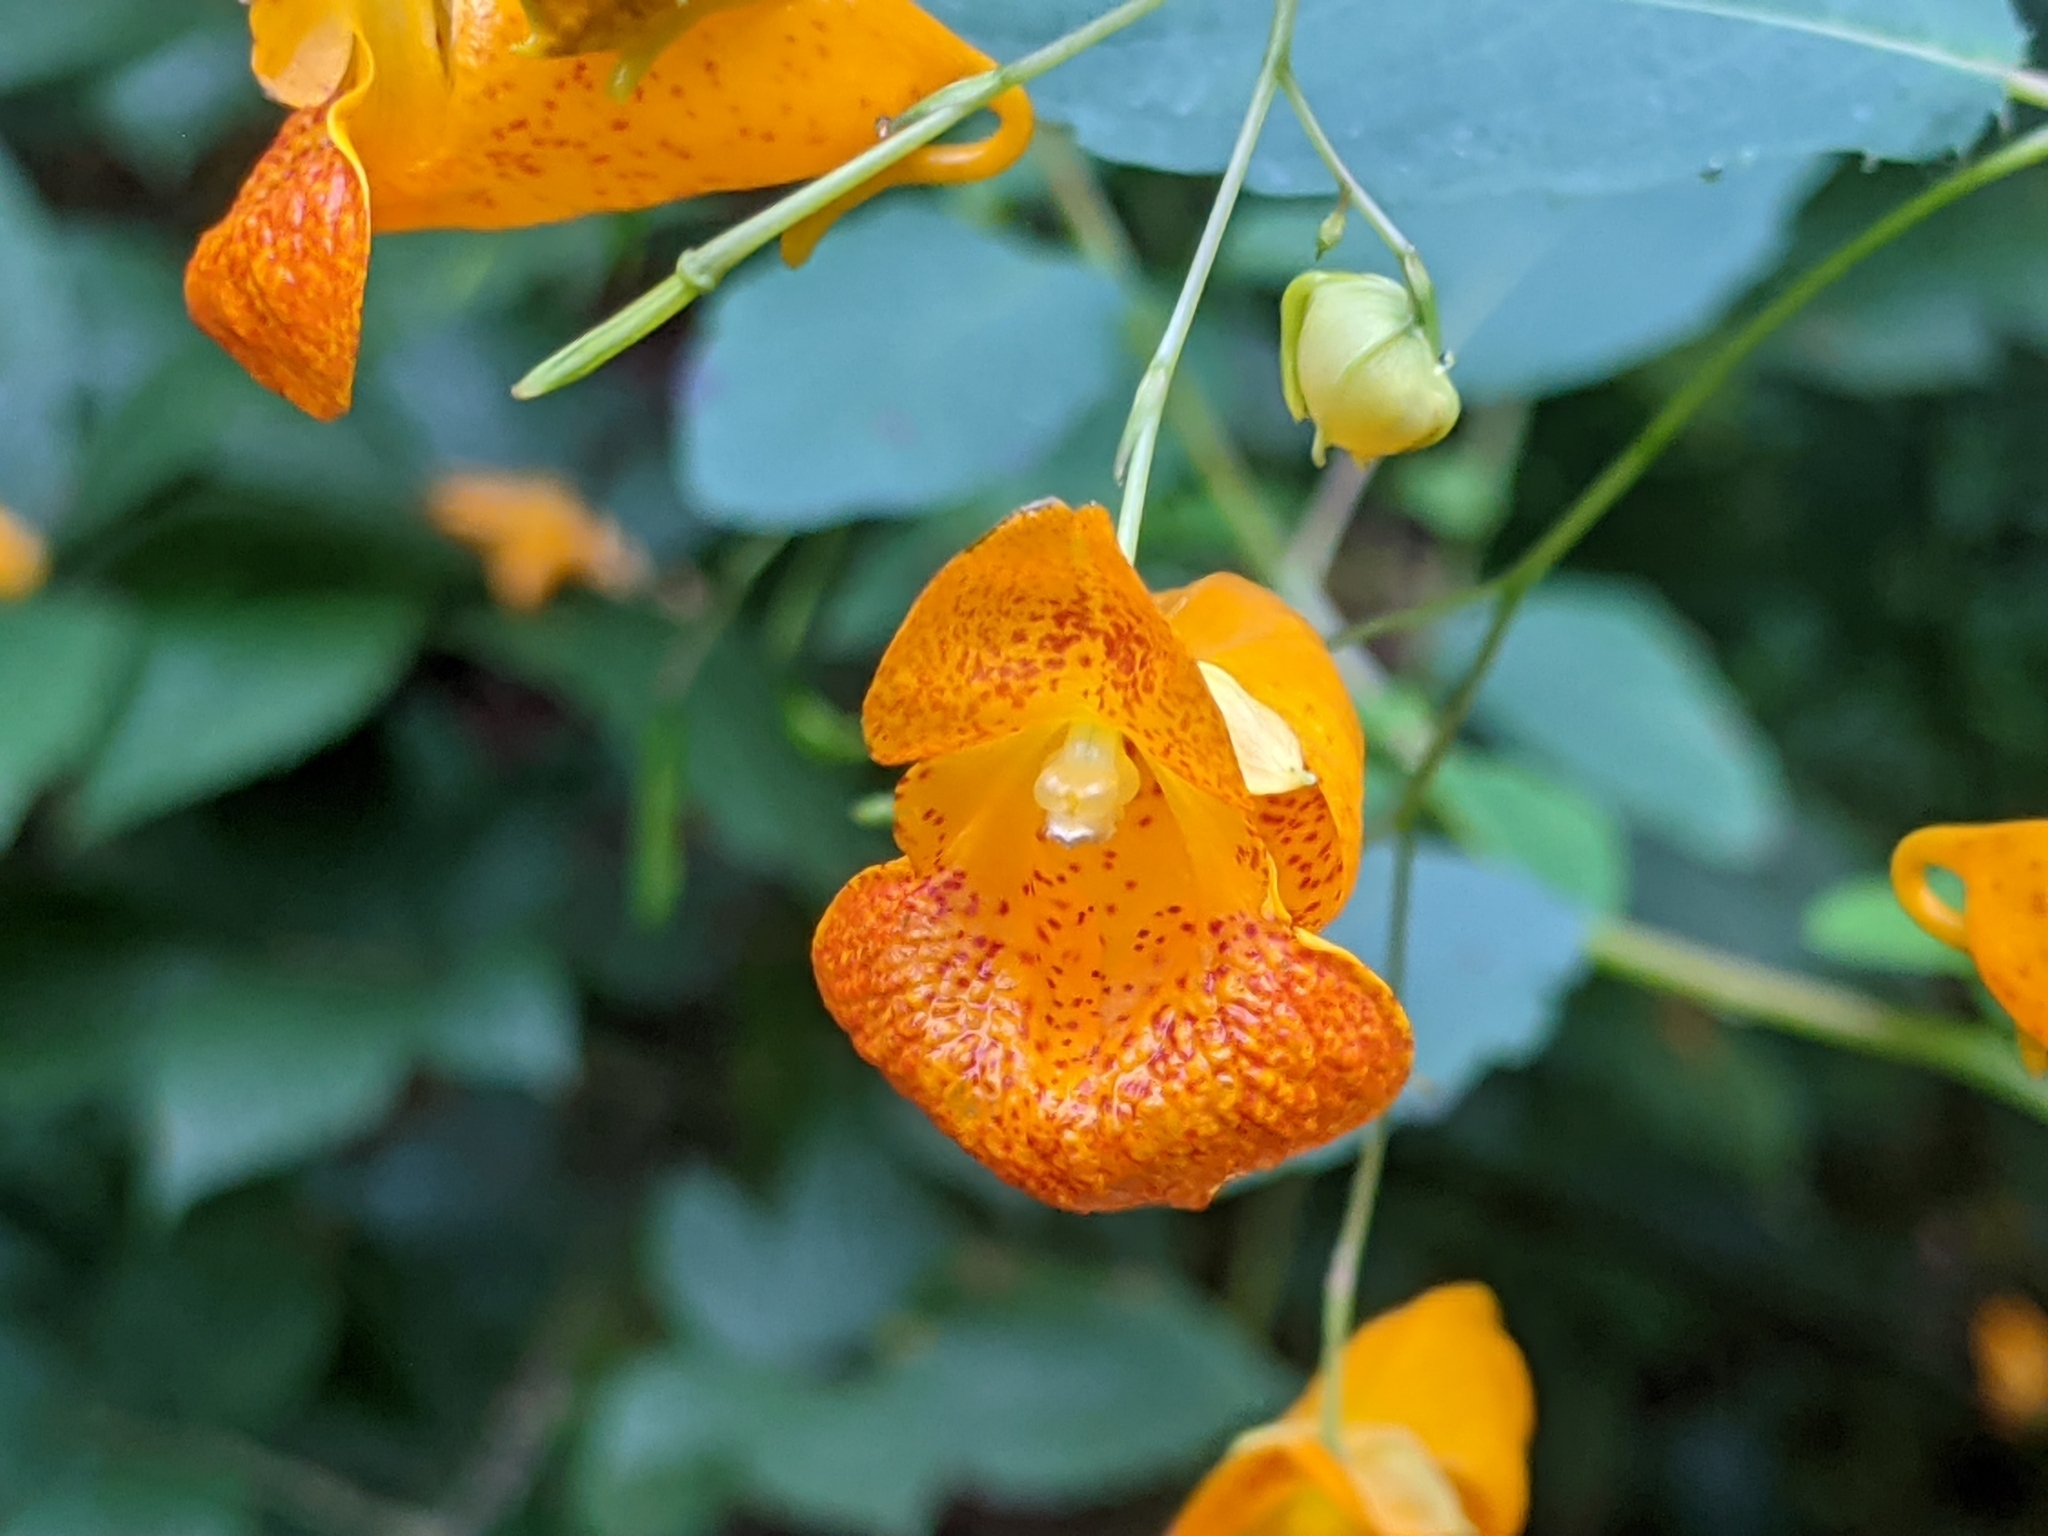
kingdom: Plantae
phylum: Tracheophyta
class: Magnoliopsida
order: Ericales
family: Balsaminaceae
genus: Impatiens
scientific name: Impatiens capensis
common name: Orange balsam
